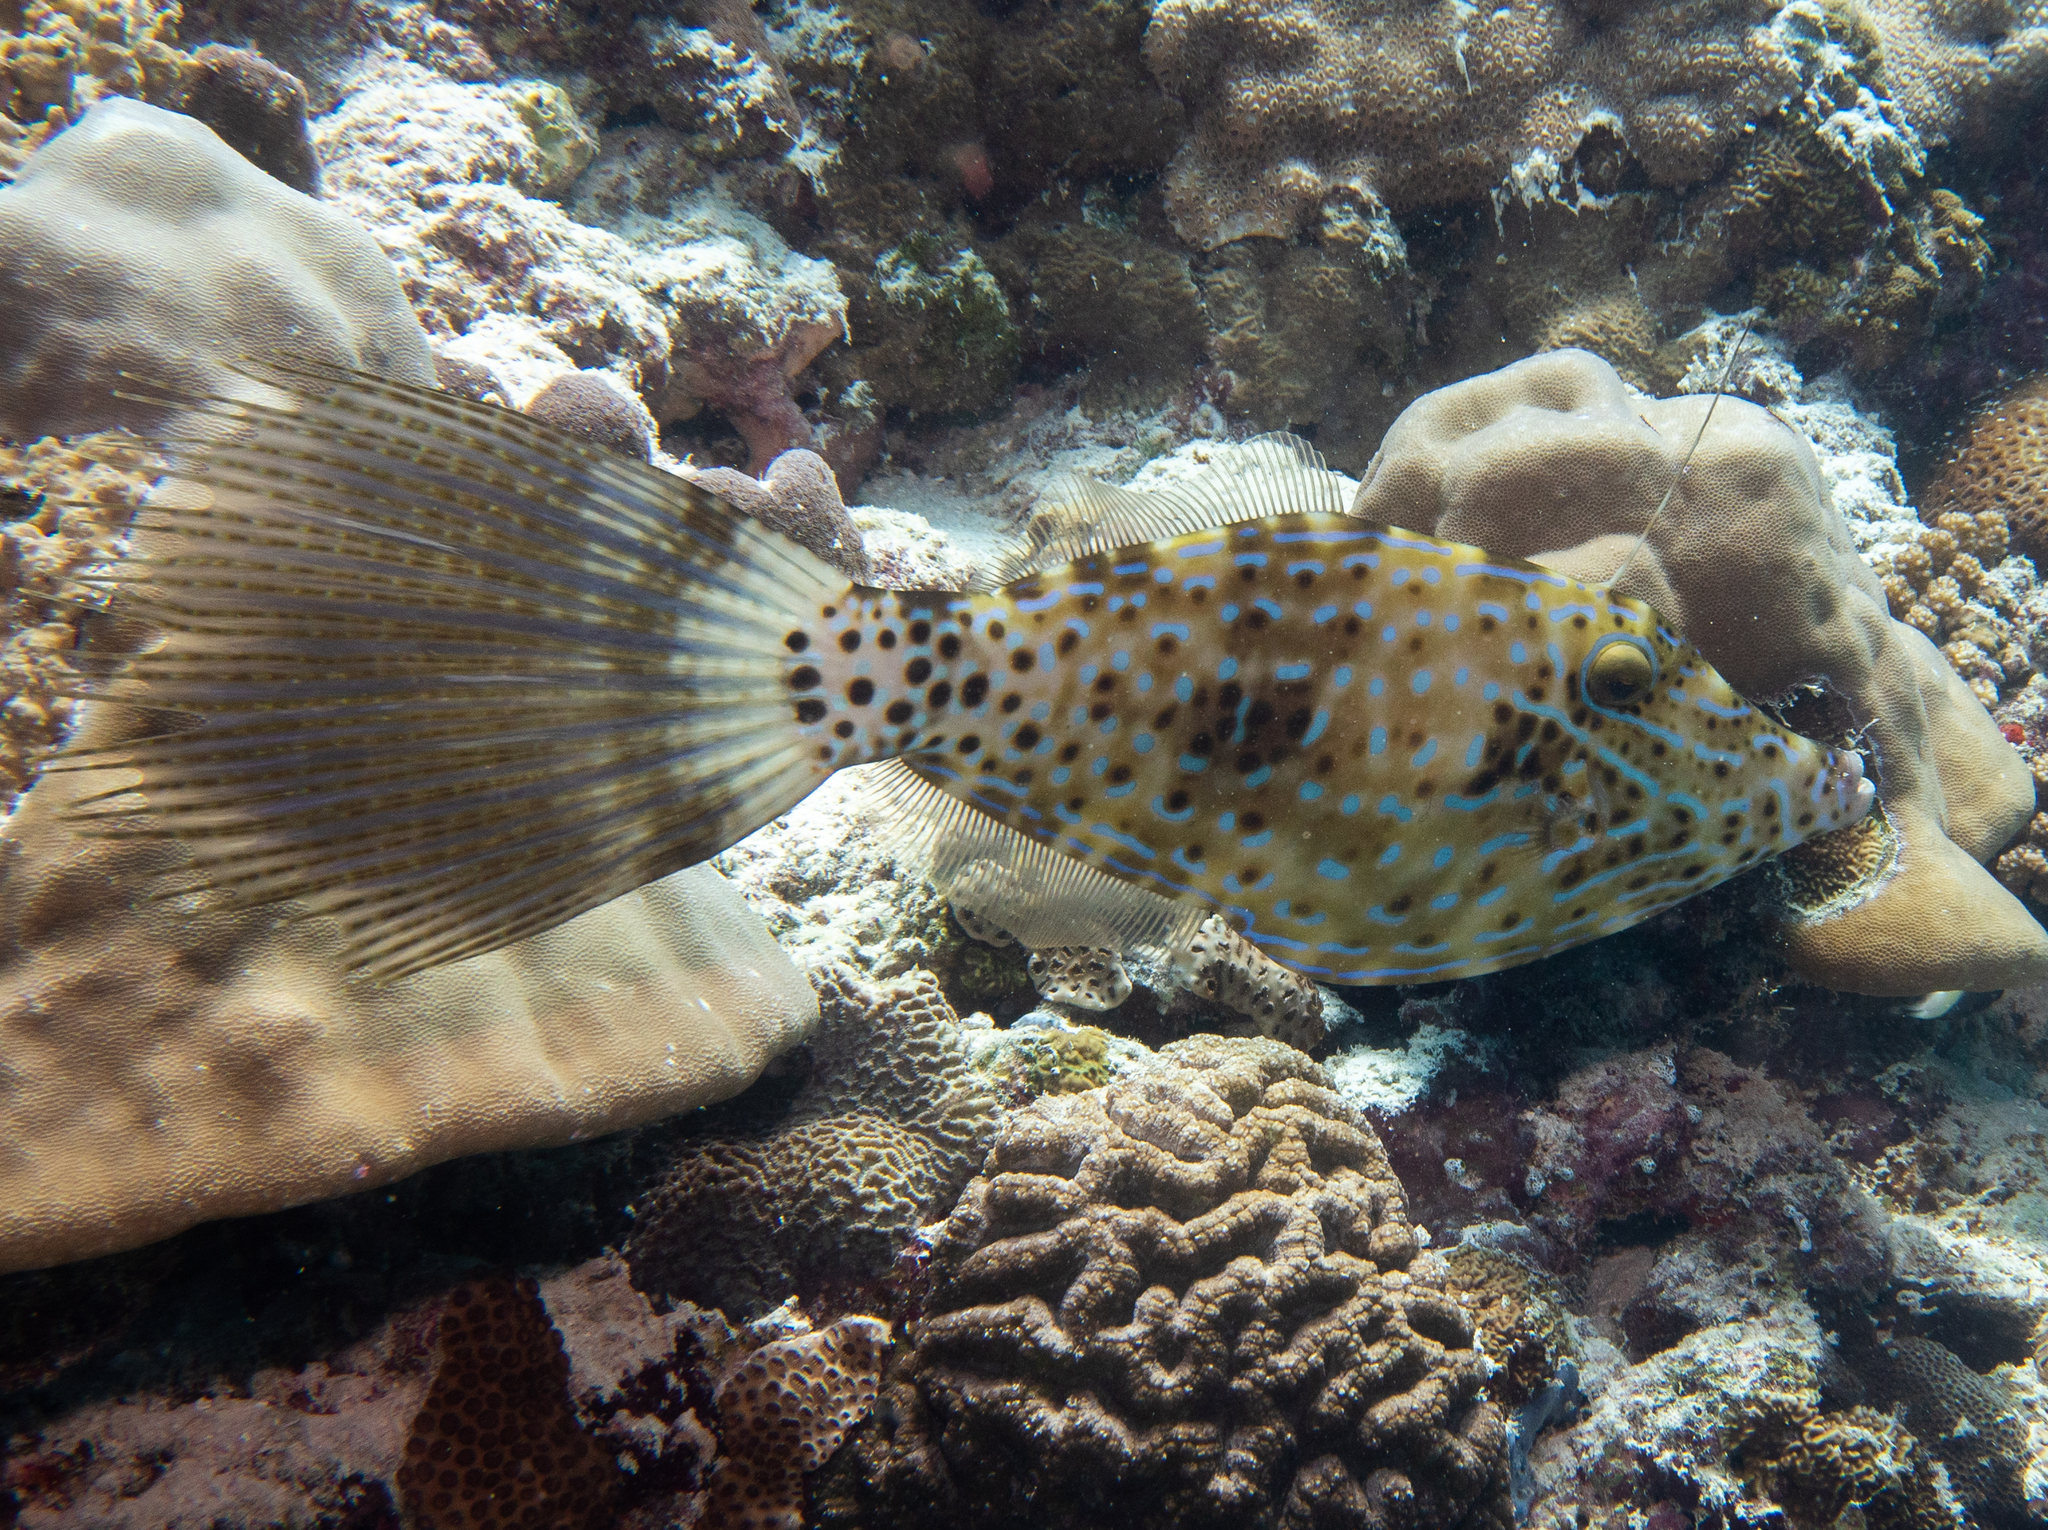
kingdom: Animalia
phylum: Chordata
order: Tetraodontiformes
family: Monacanthidae
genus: Aluterus
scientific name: Aluterus scriptus
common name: Scribbled leatherjacket filefish
